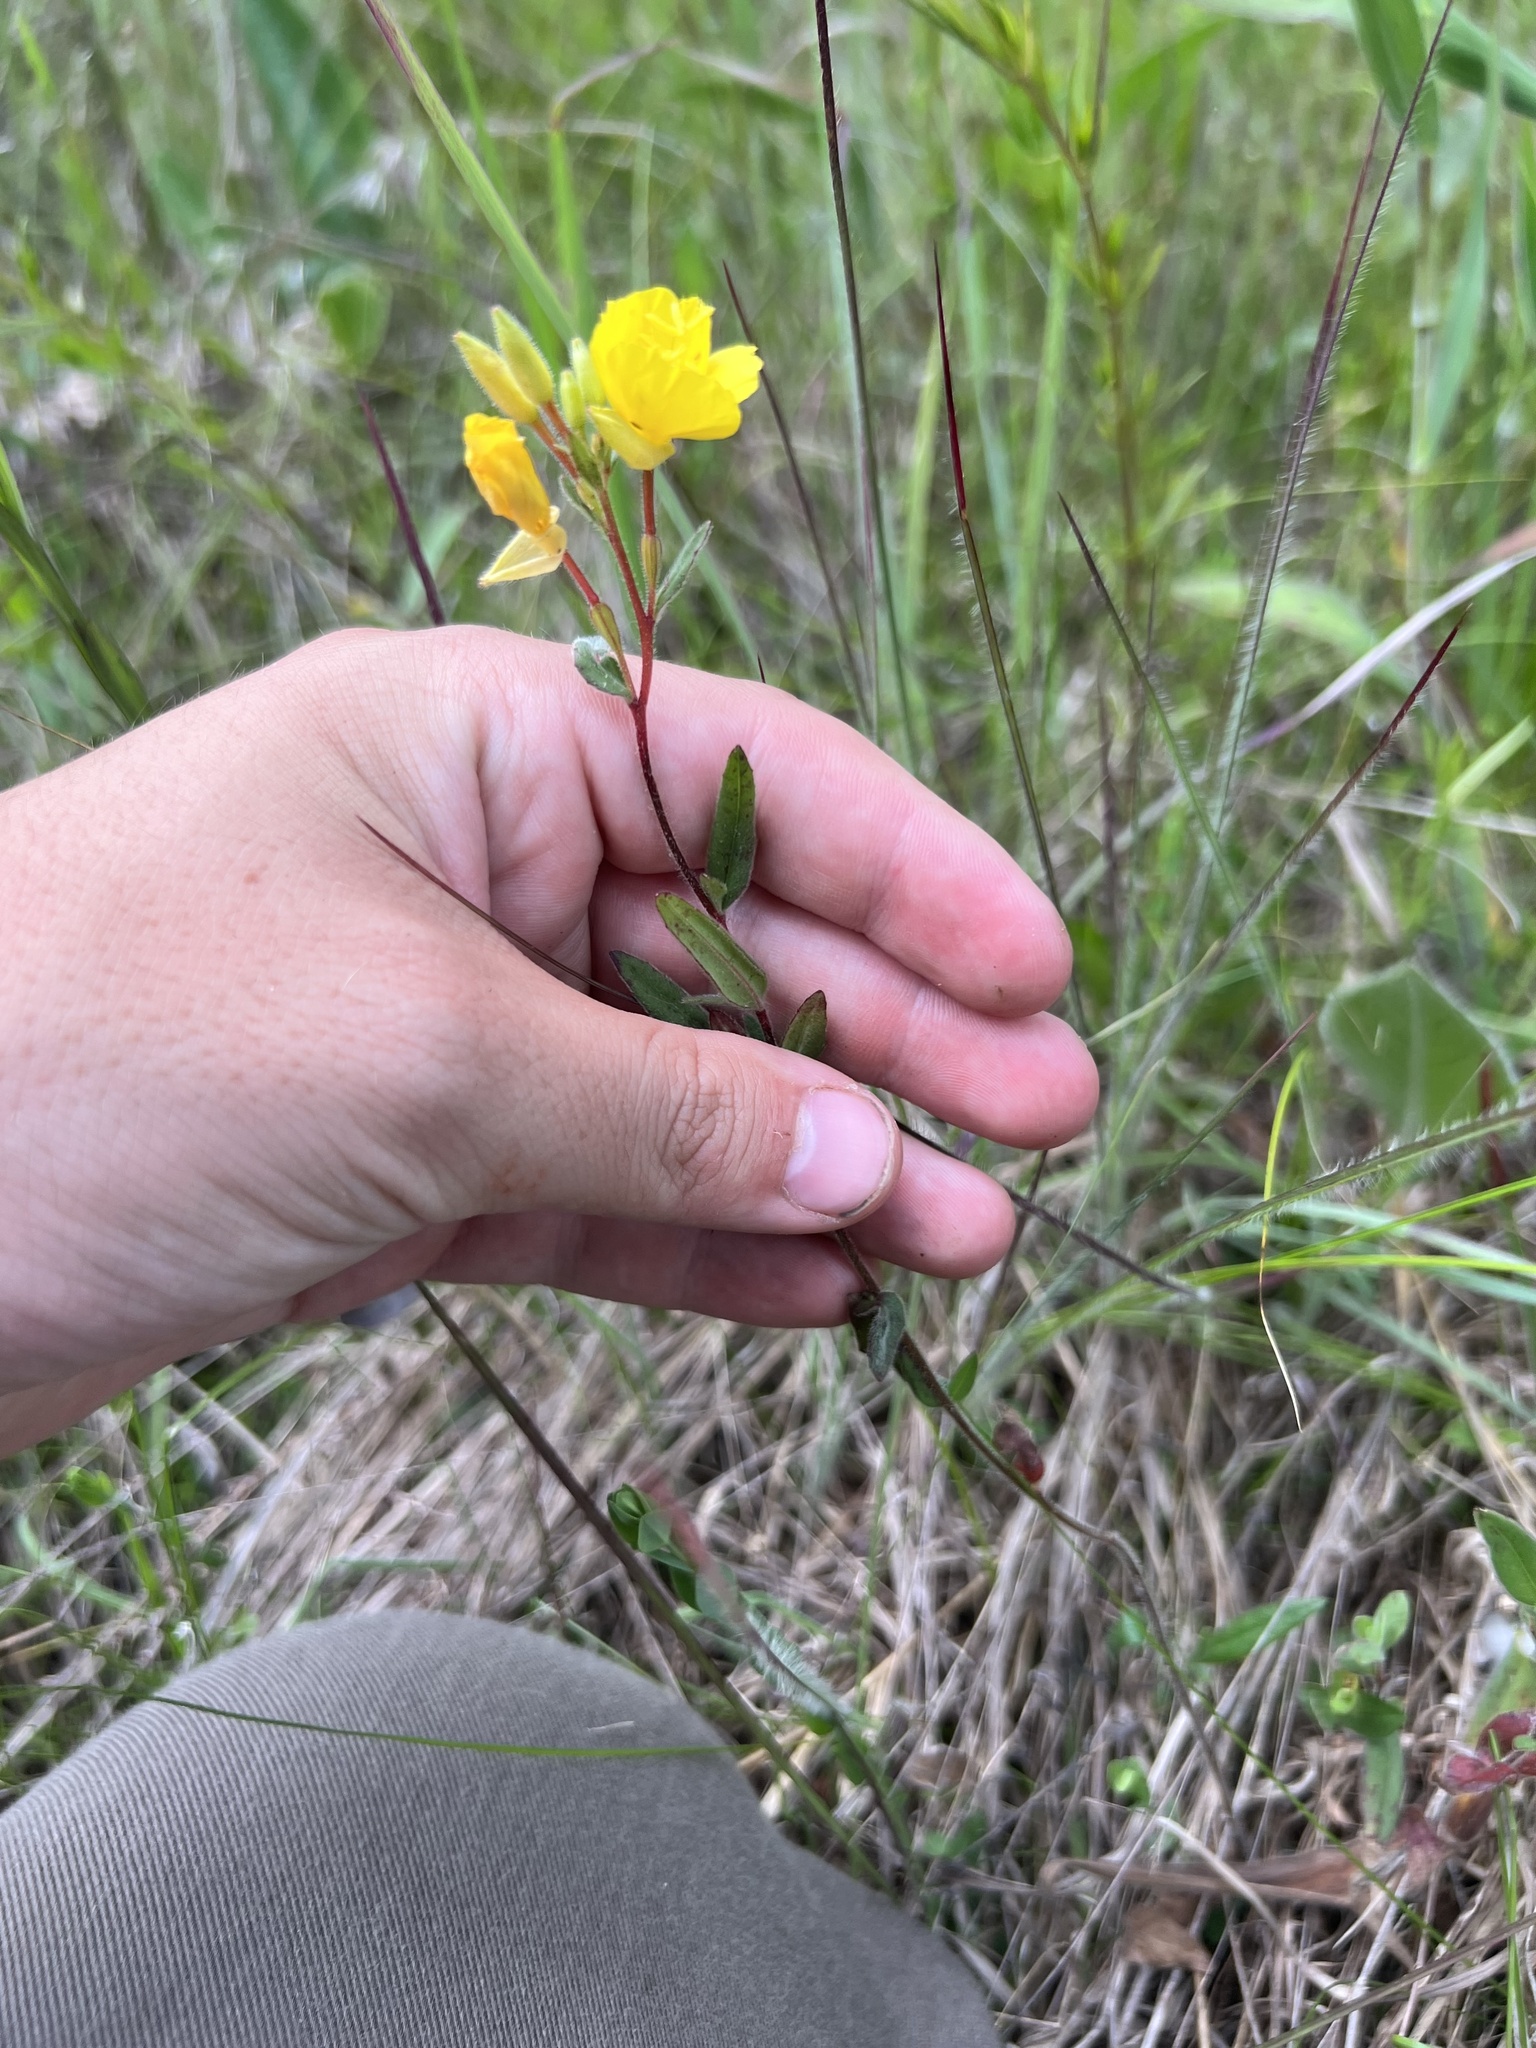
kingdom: Plantae
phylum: Tracheophyta
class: Magnoliopsida
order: Myrtales
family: Onagraceae
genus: Oenothera
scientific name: Oenothera fruticosa
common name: Southern sundrops
